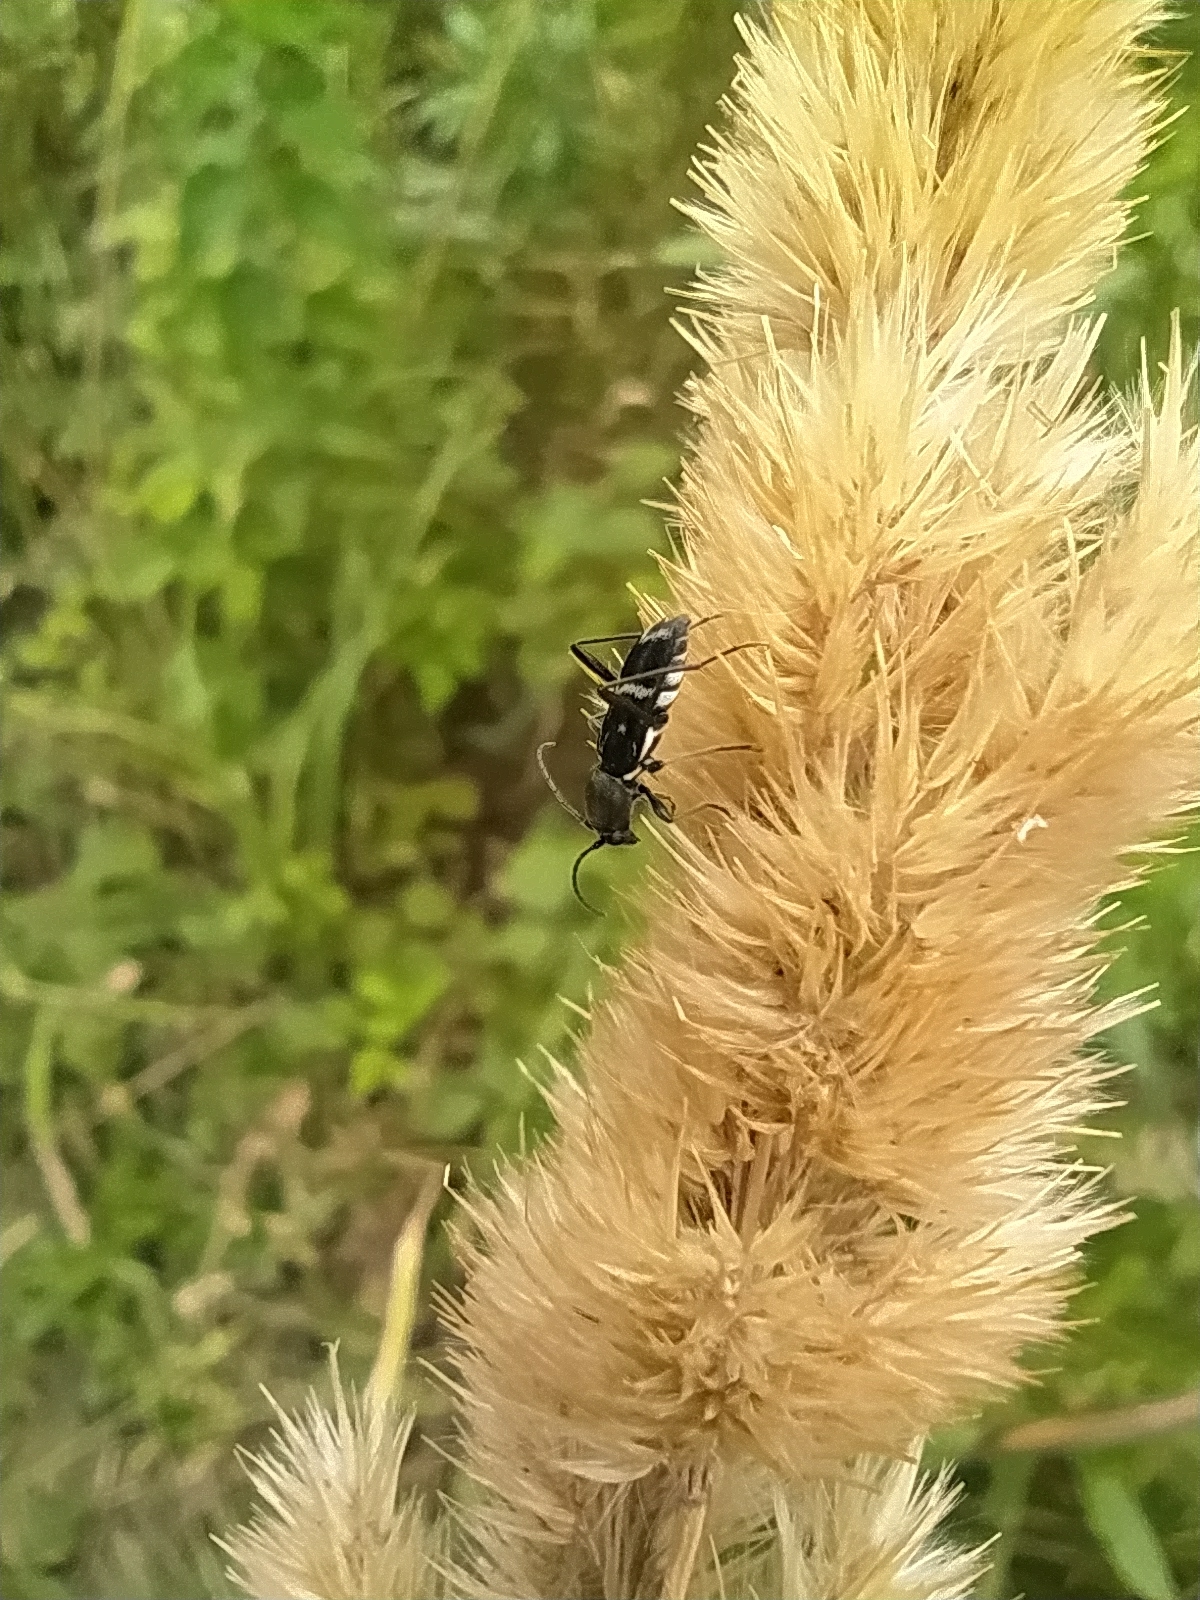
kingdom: Animalia
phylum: Arthropoda
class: Insecta
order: Coleoptera
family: Cerambycidae
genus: Chlorophorus
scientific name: Chlorophorus sartor
